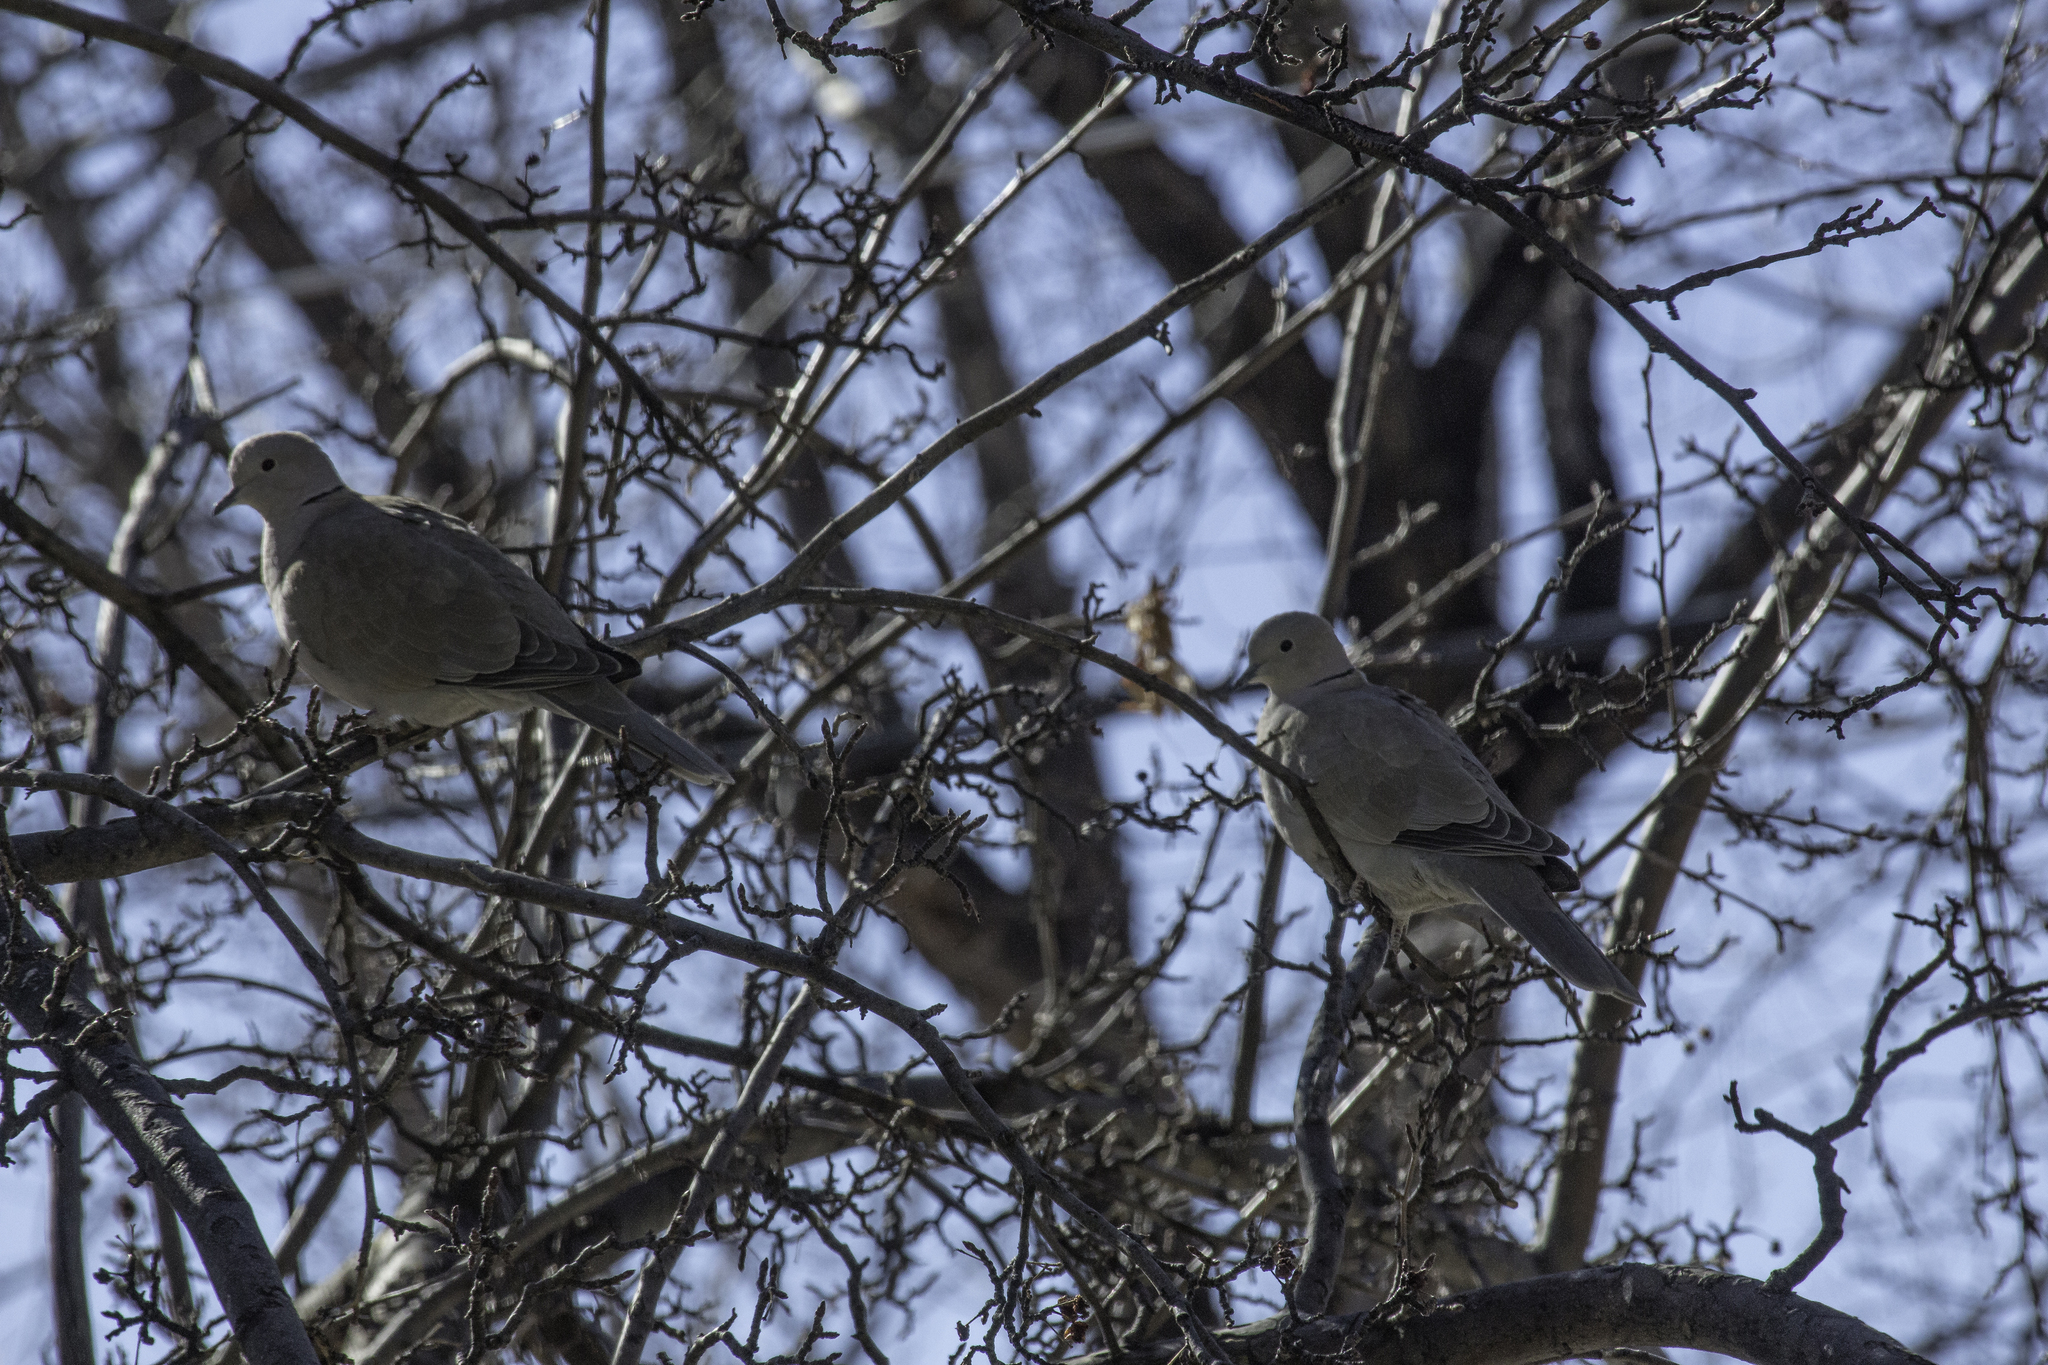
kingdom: Animalia
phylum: Chordata
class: Aves
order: Columbiformes
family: Columbidae
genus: Streptopelia
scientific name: Streptopelia decaocto
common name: Eurasian collared dove
